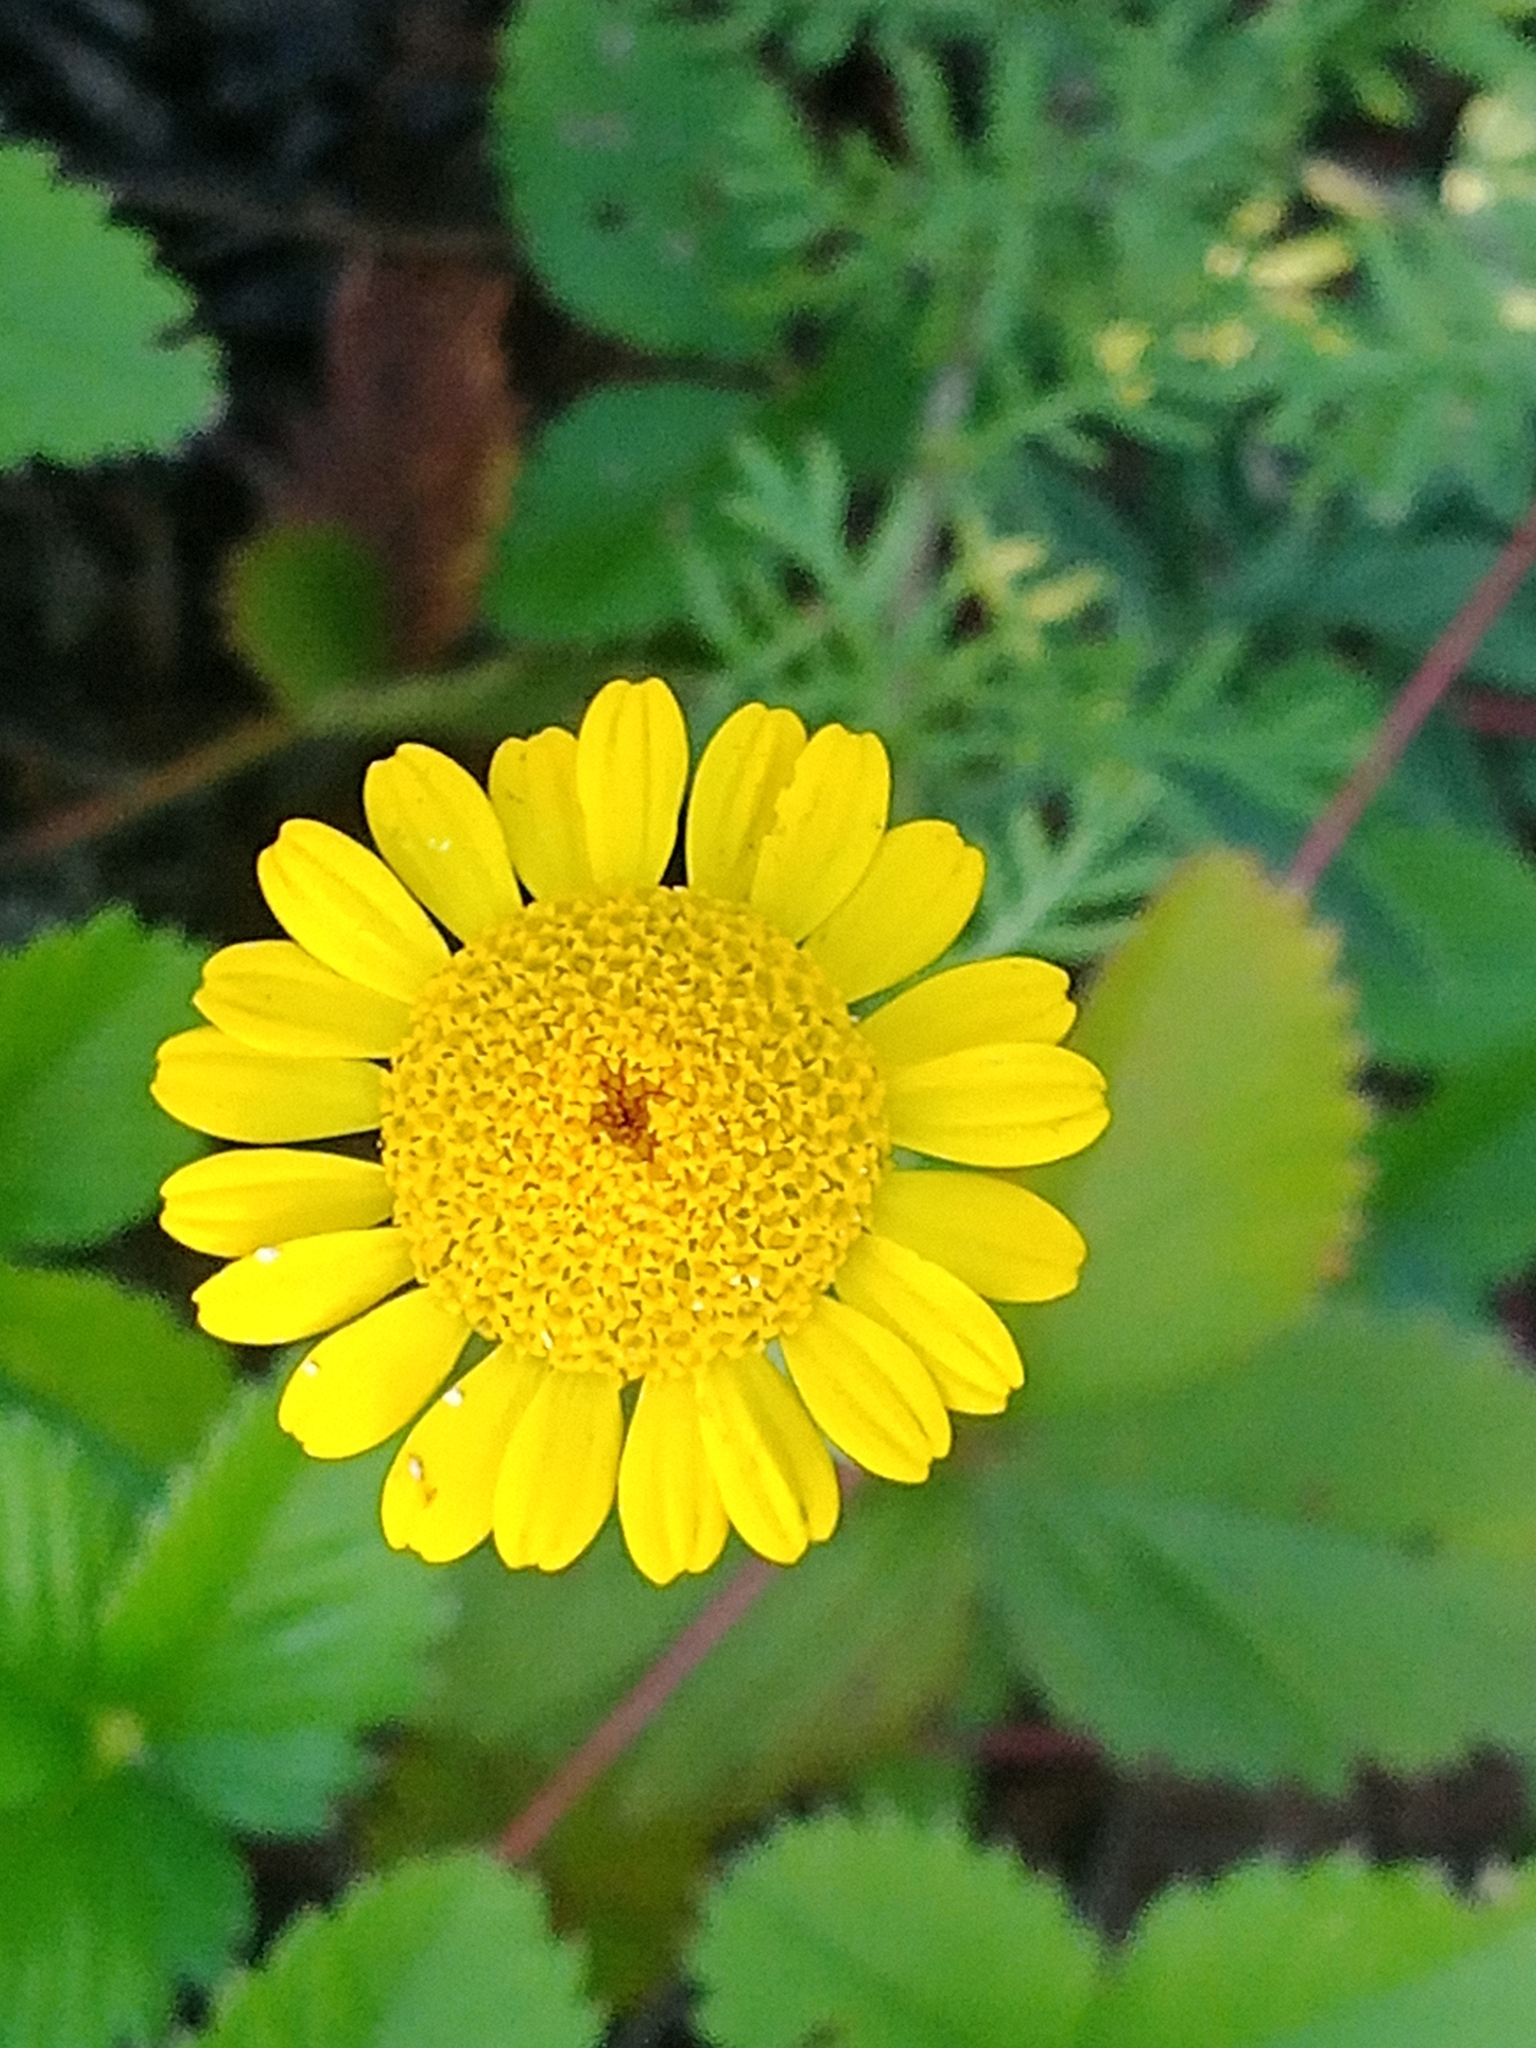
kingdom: Plantae
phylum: Tracheophyta
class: Magnoliopsida
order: Asterales
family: Asteraceae
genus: Cota
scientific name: Cota tinctoria
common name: Golden chamomile
